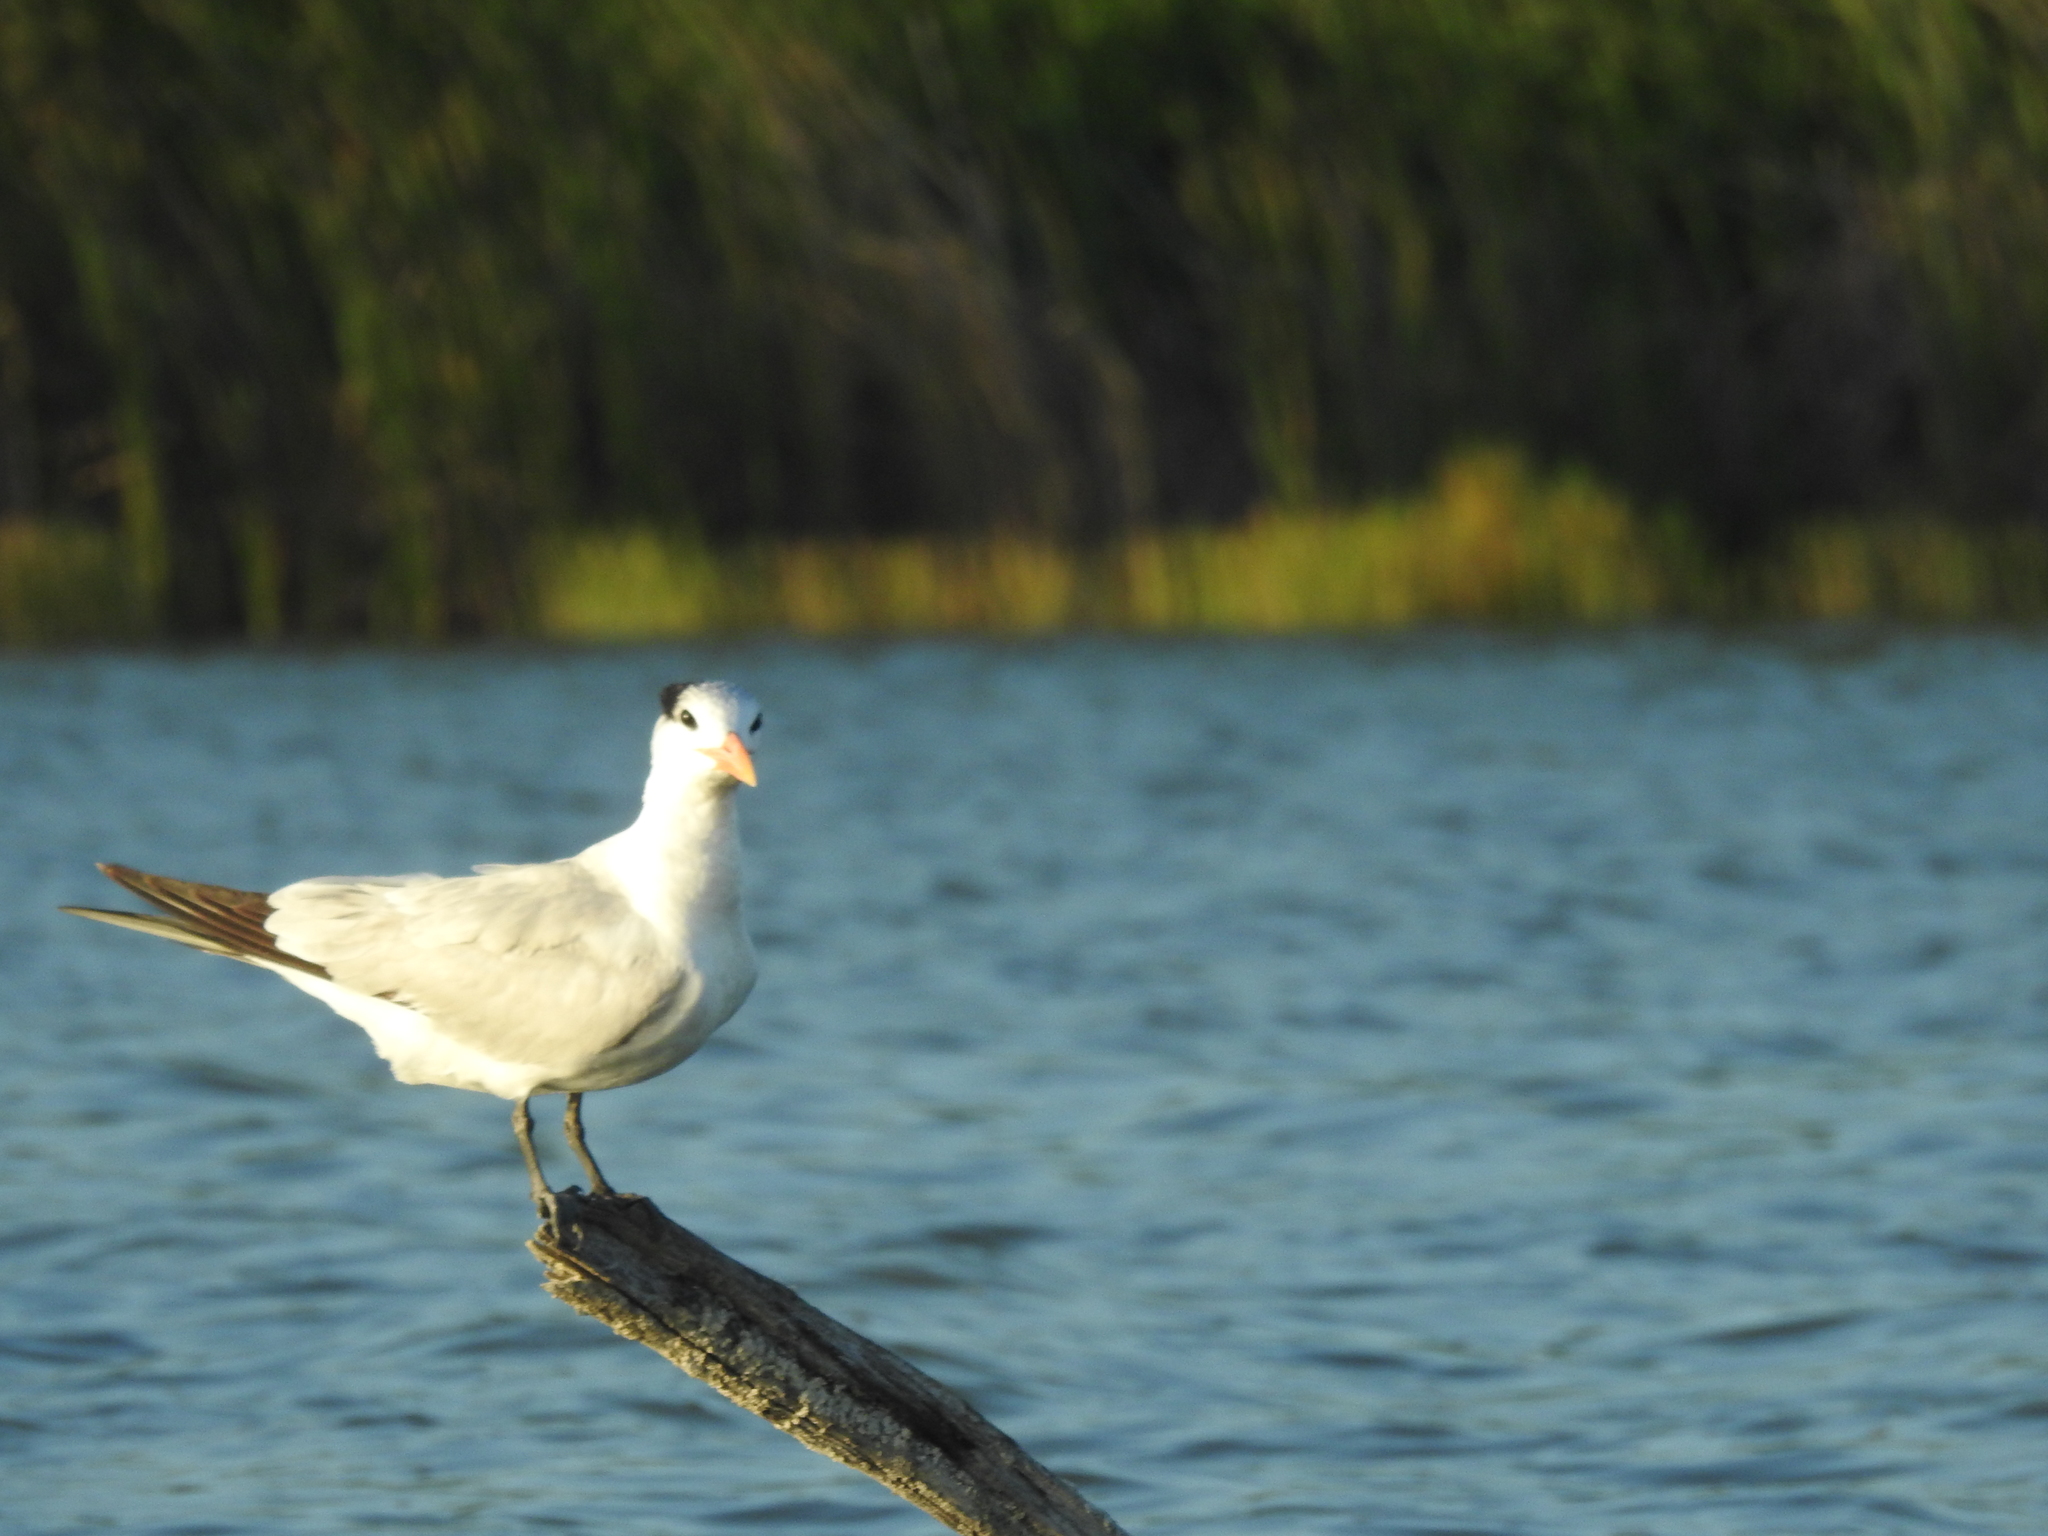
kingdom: Animalia
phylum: Chordata
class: Aves
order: Charadriiformes
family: Laridae
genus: Thalasseus
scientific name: Thalasseus maximus
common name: Royal tern
